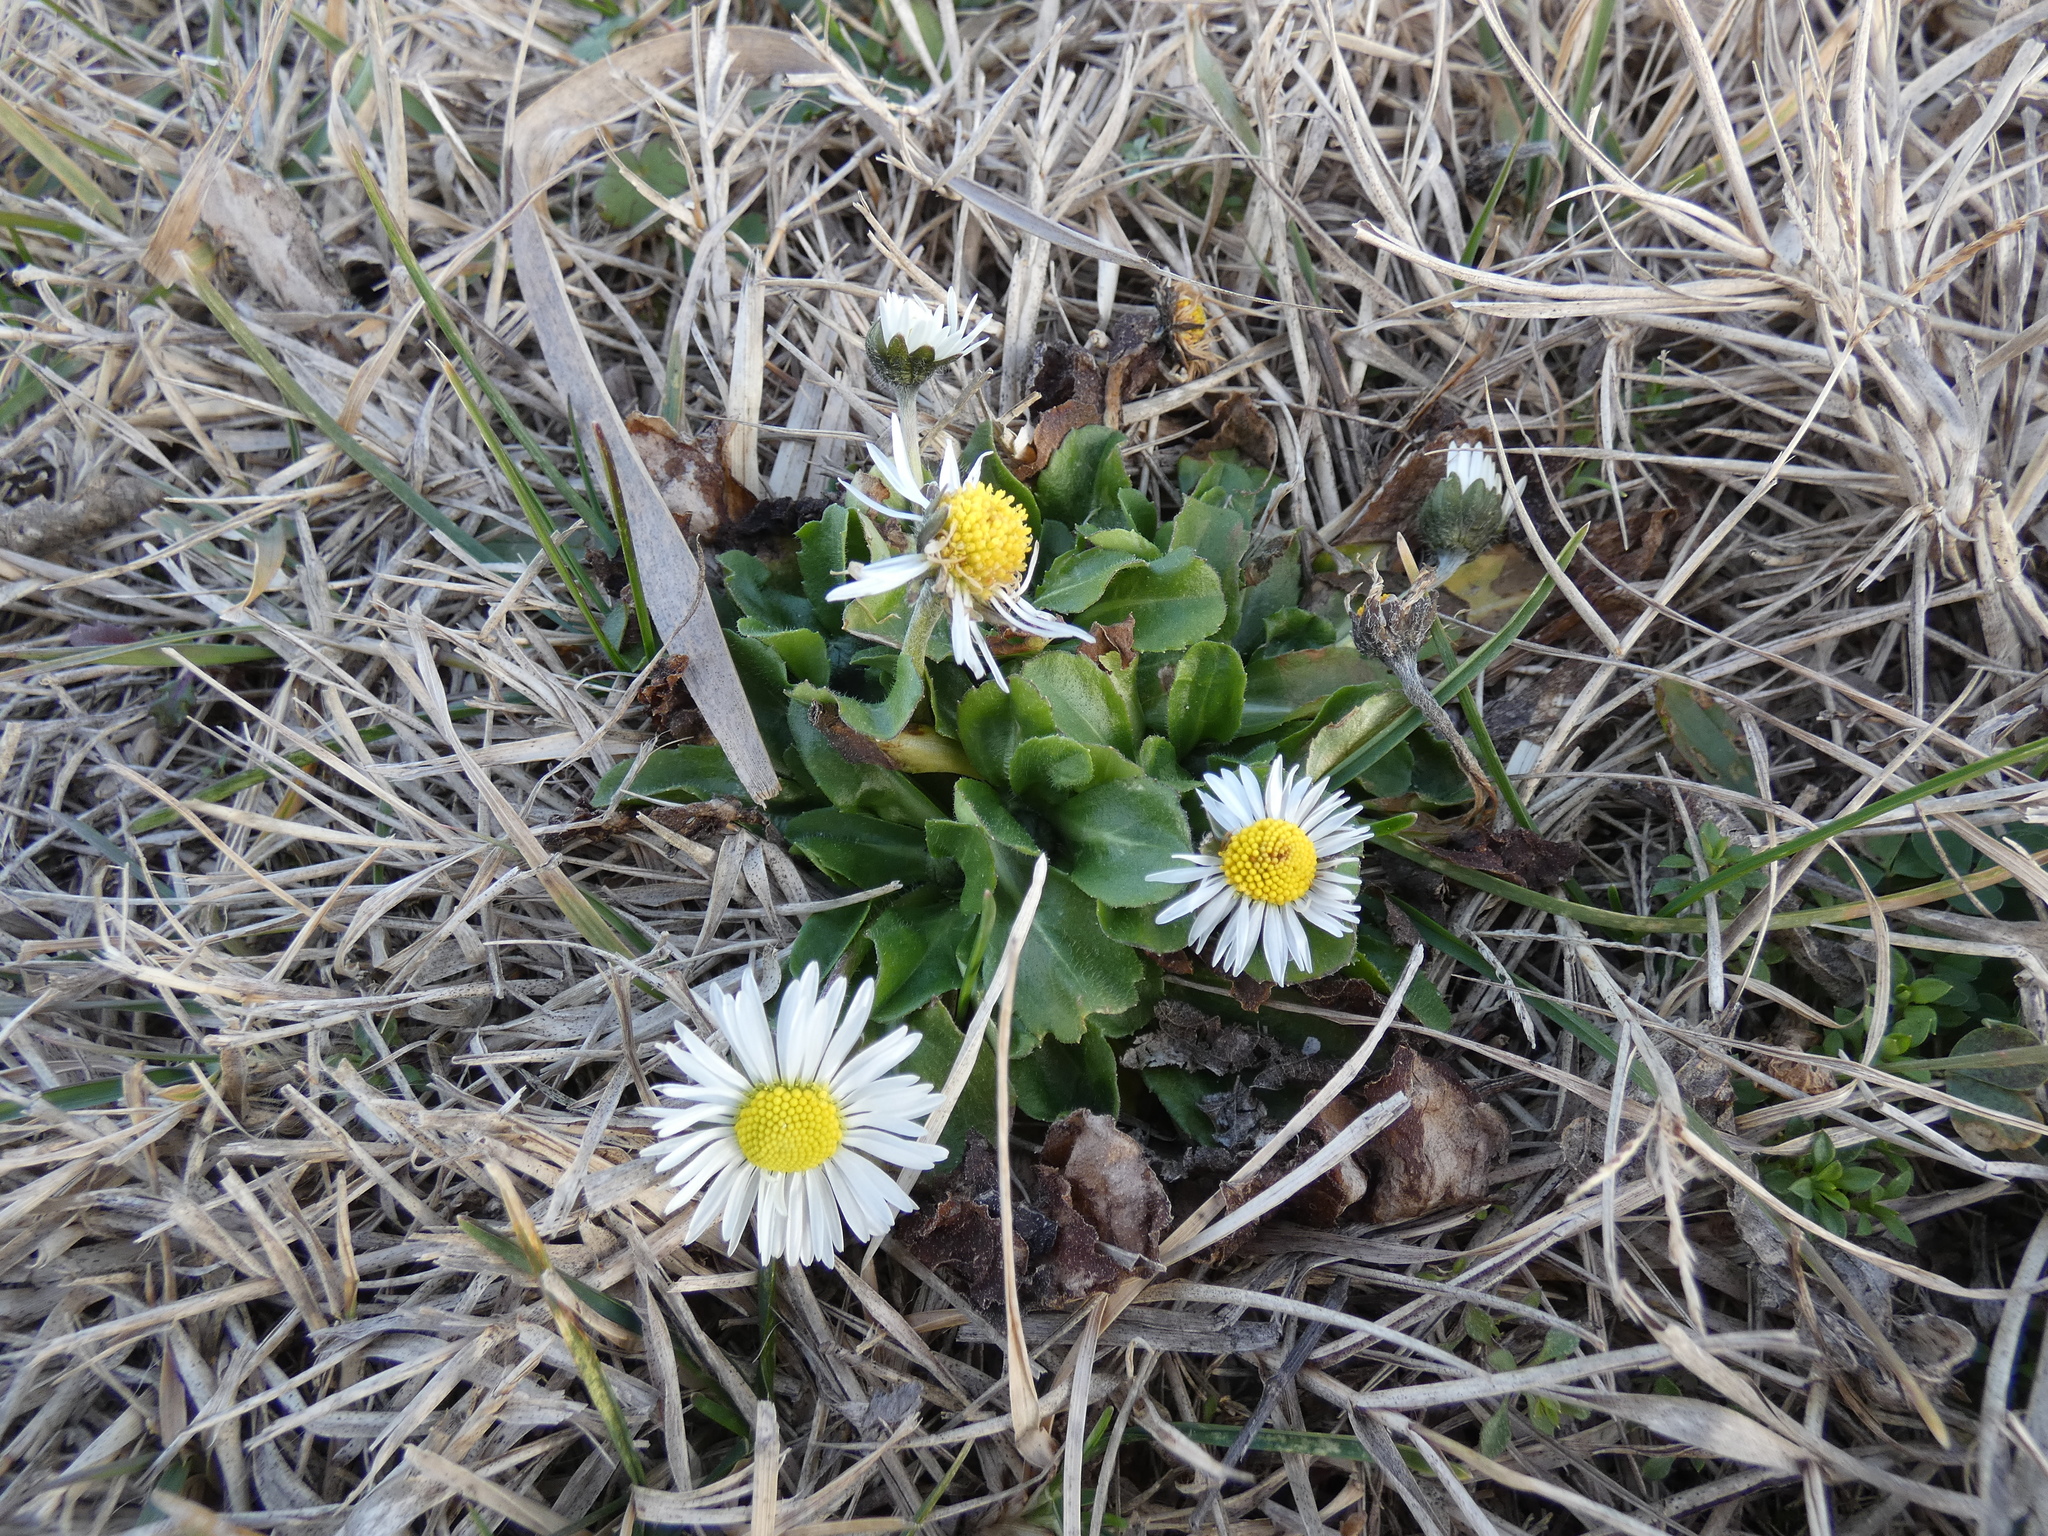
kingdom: Plantae
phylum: Tracheophyta
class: Magnoliopsida
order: Asterales
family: Asteraceae
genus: Bellis
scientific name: Bellis perennis
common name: Lawndaisy
